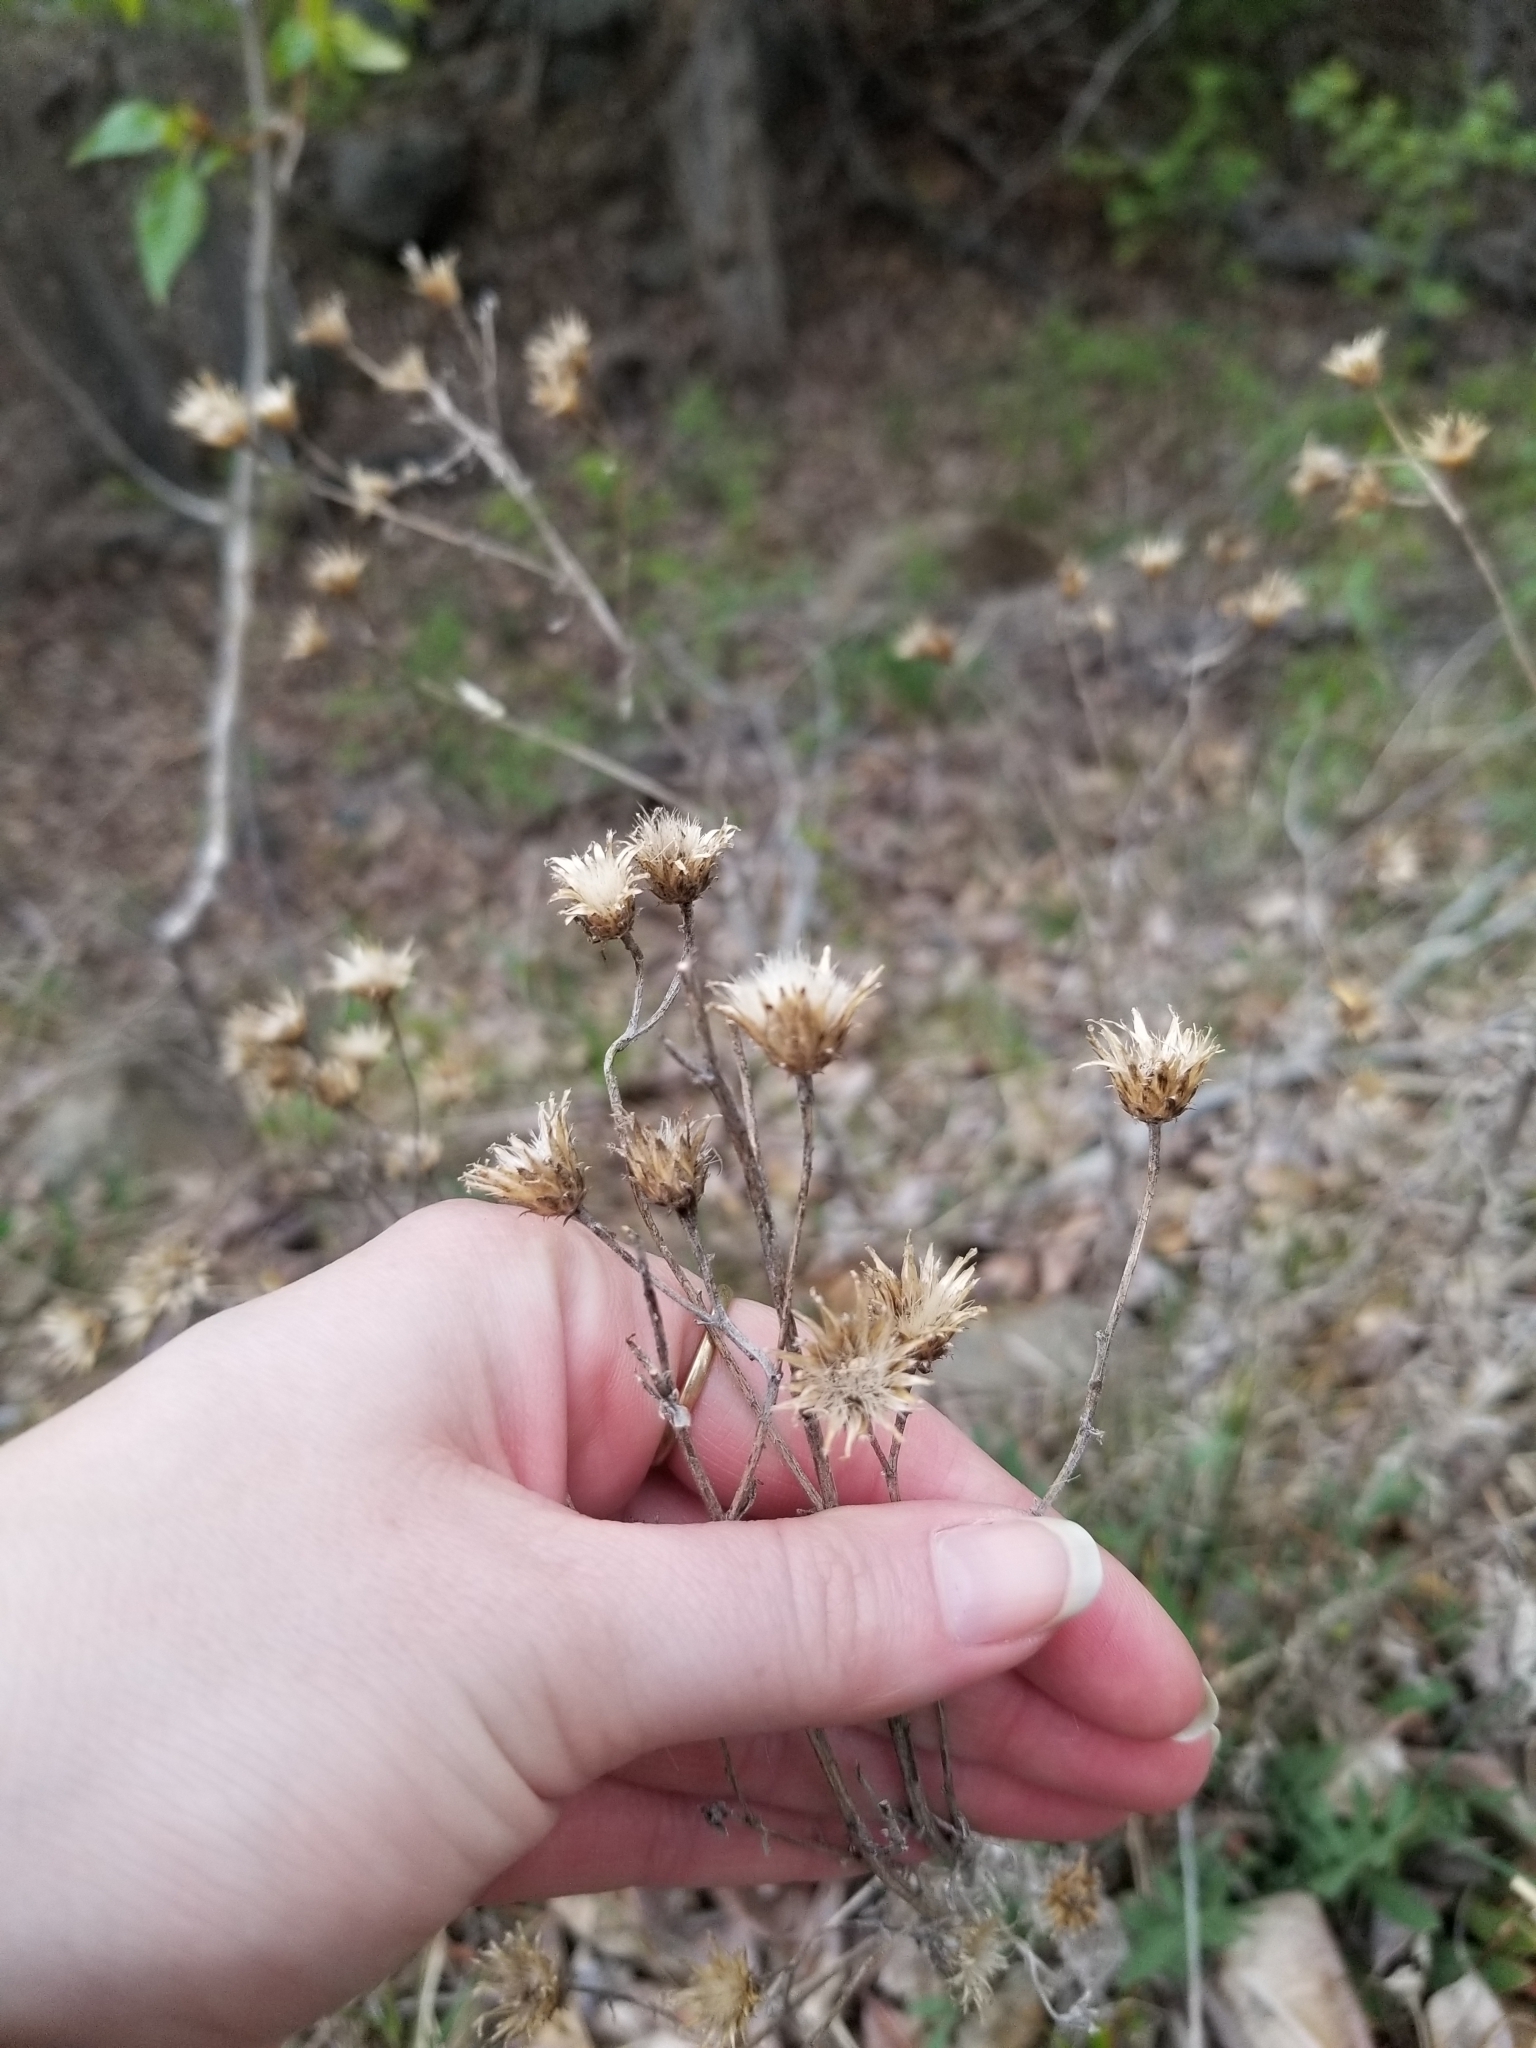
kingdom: Plantae
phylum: Tracheophyta
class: Magnoliopsida
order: Asterales
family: Asteraceae
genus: Centaurea
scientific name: Centaurea stoebe
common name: Spotted knapweed
